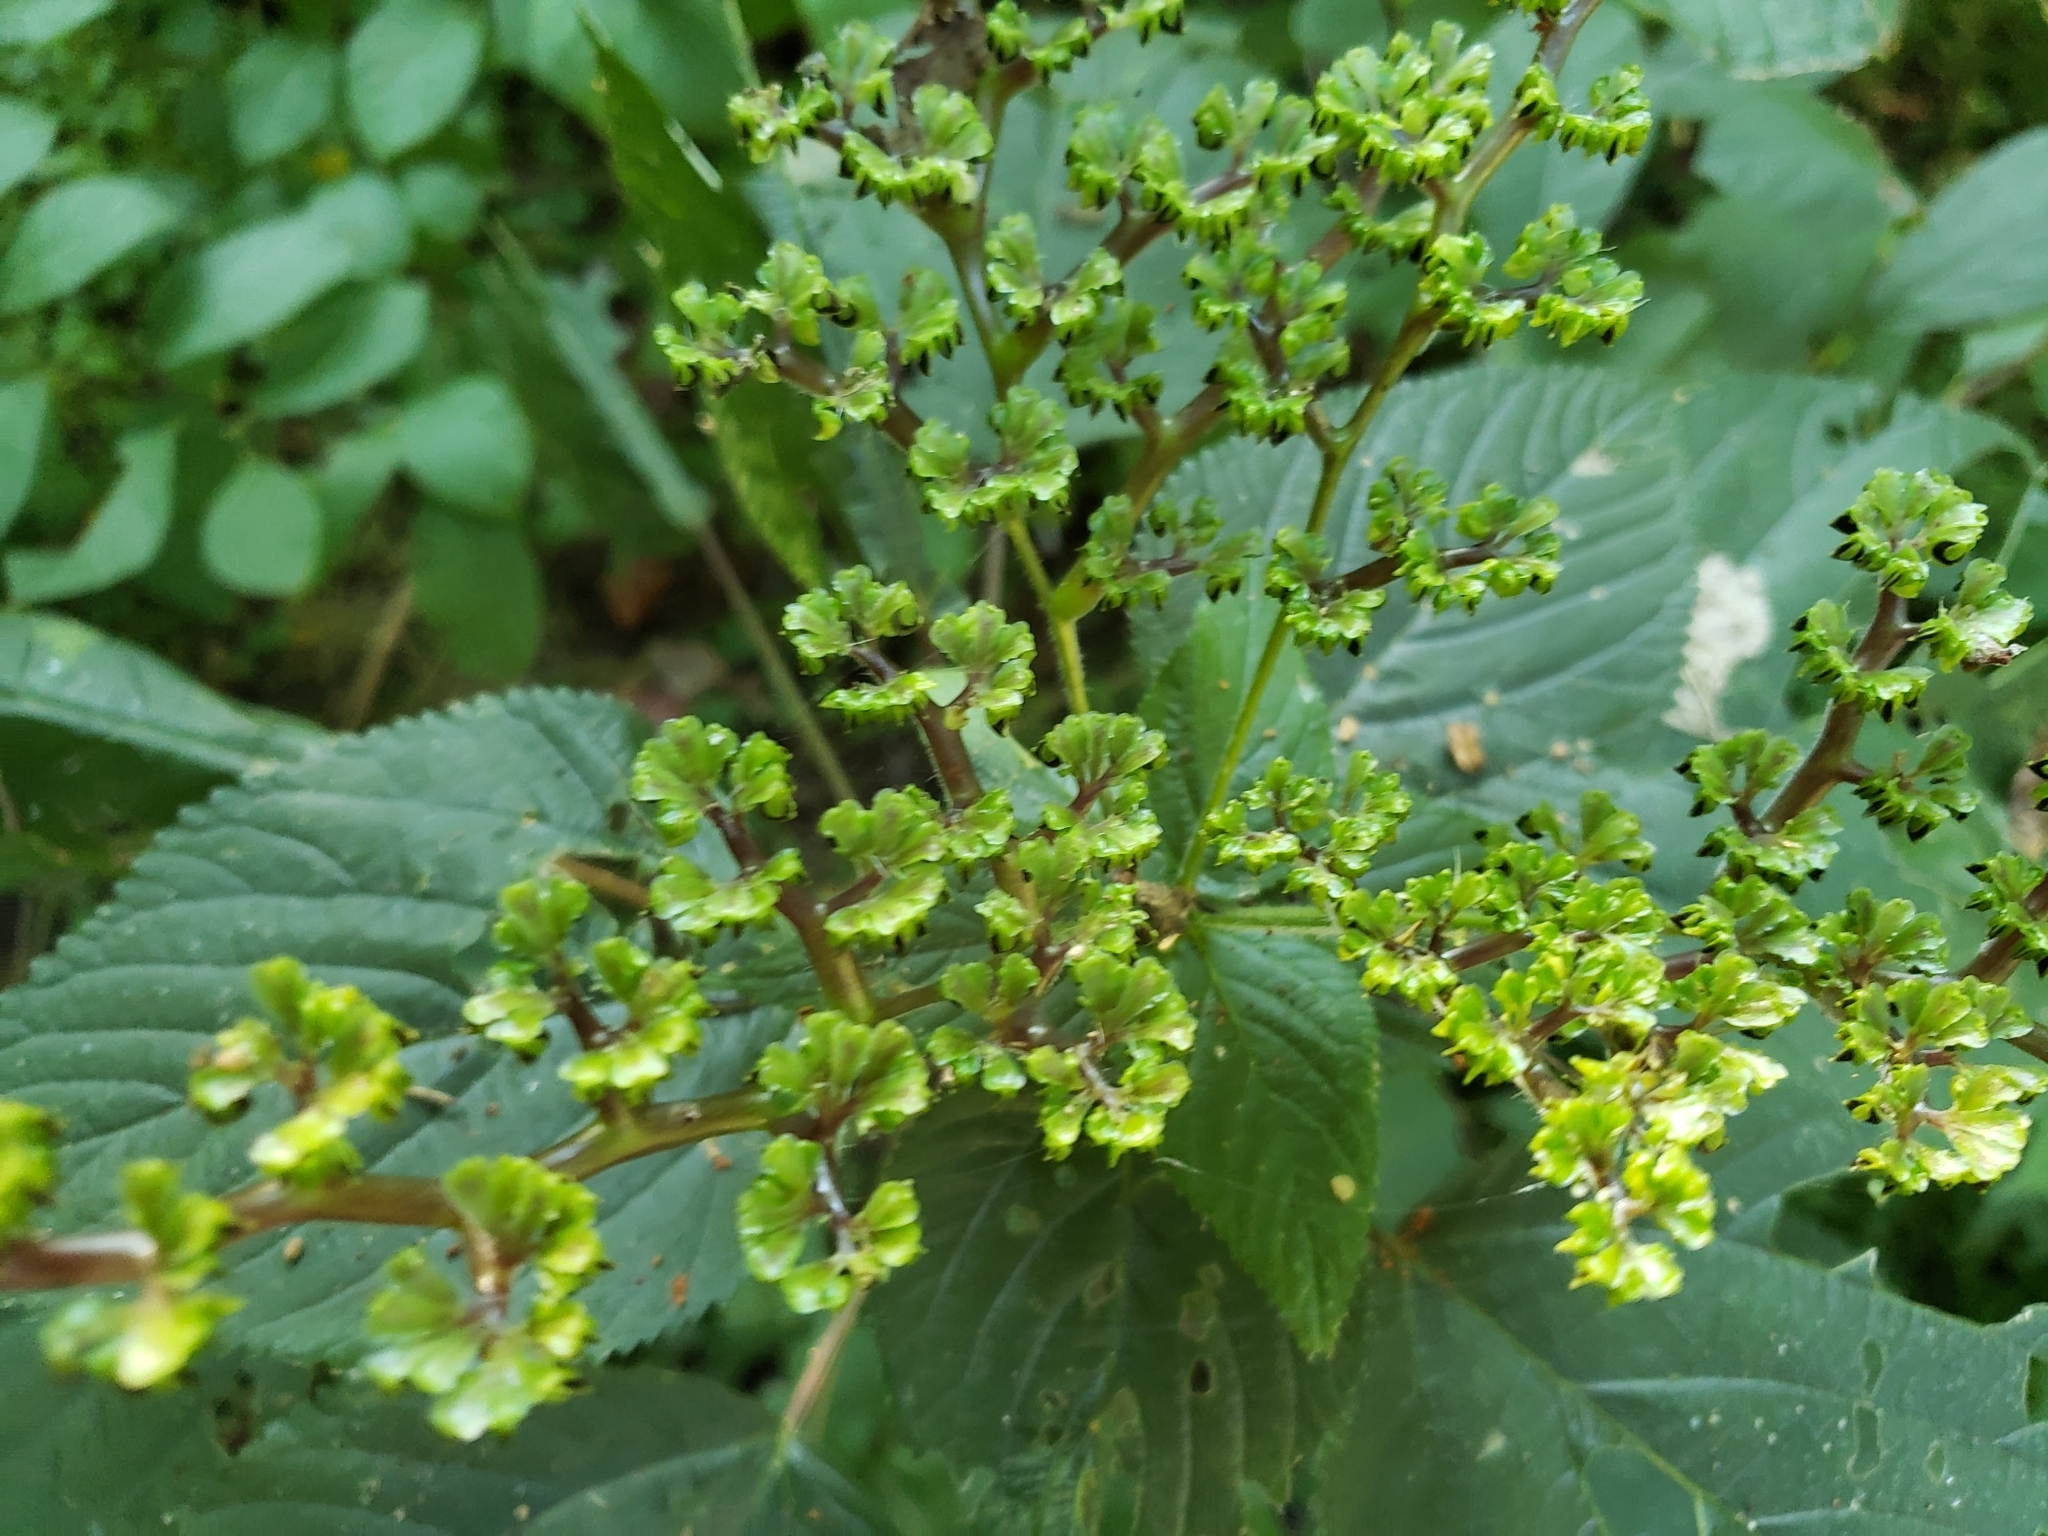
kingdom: Plantae
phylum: Tracheophyta
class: Magnoliopsida
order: Rosales
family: Urticaceae
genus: Laportea
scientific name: Laportea canadensis
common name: Canada nettle
